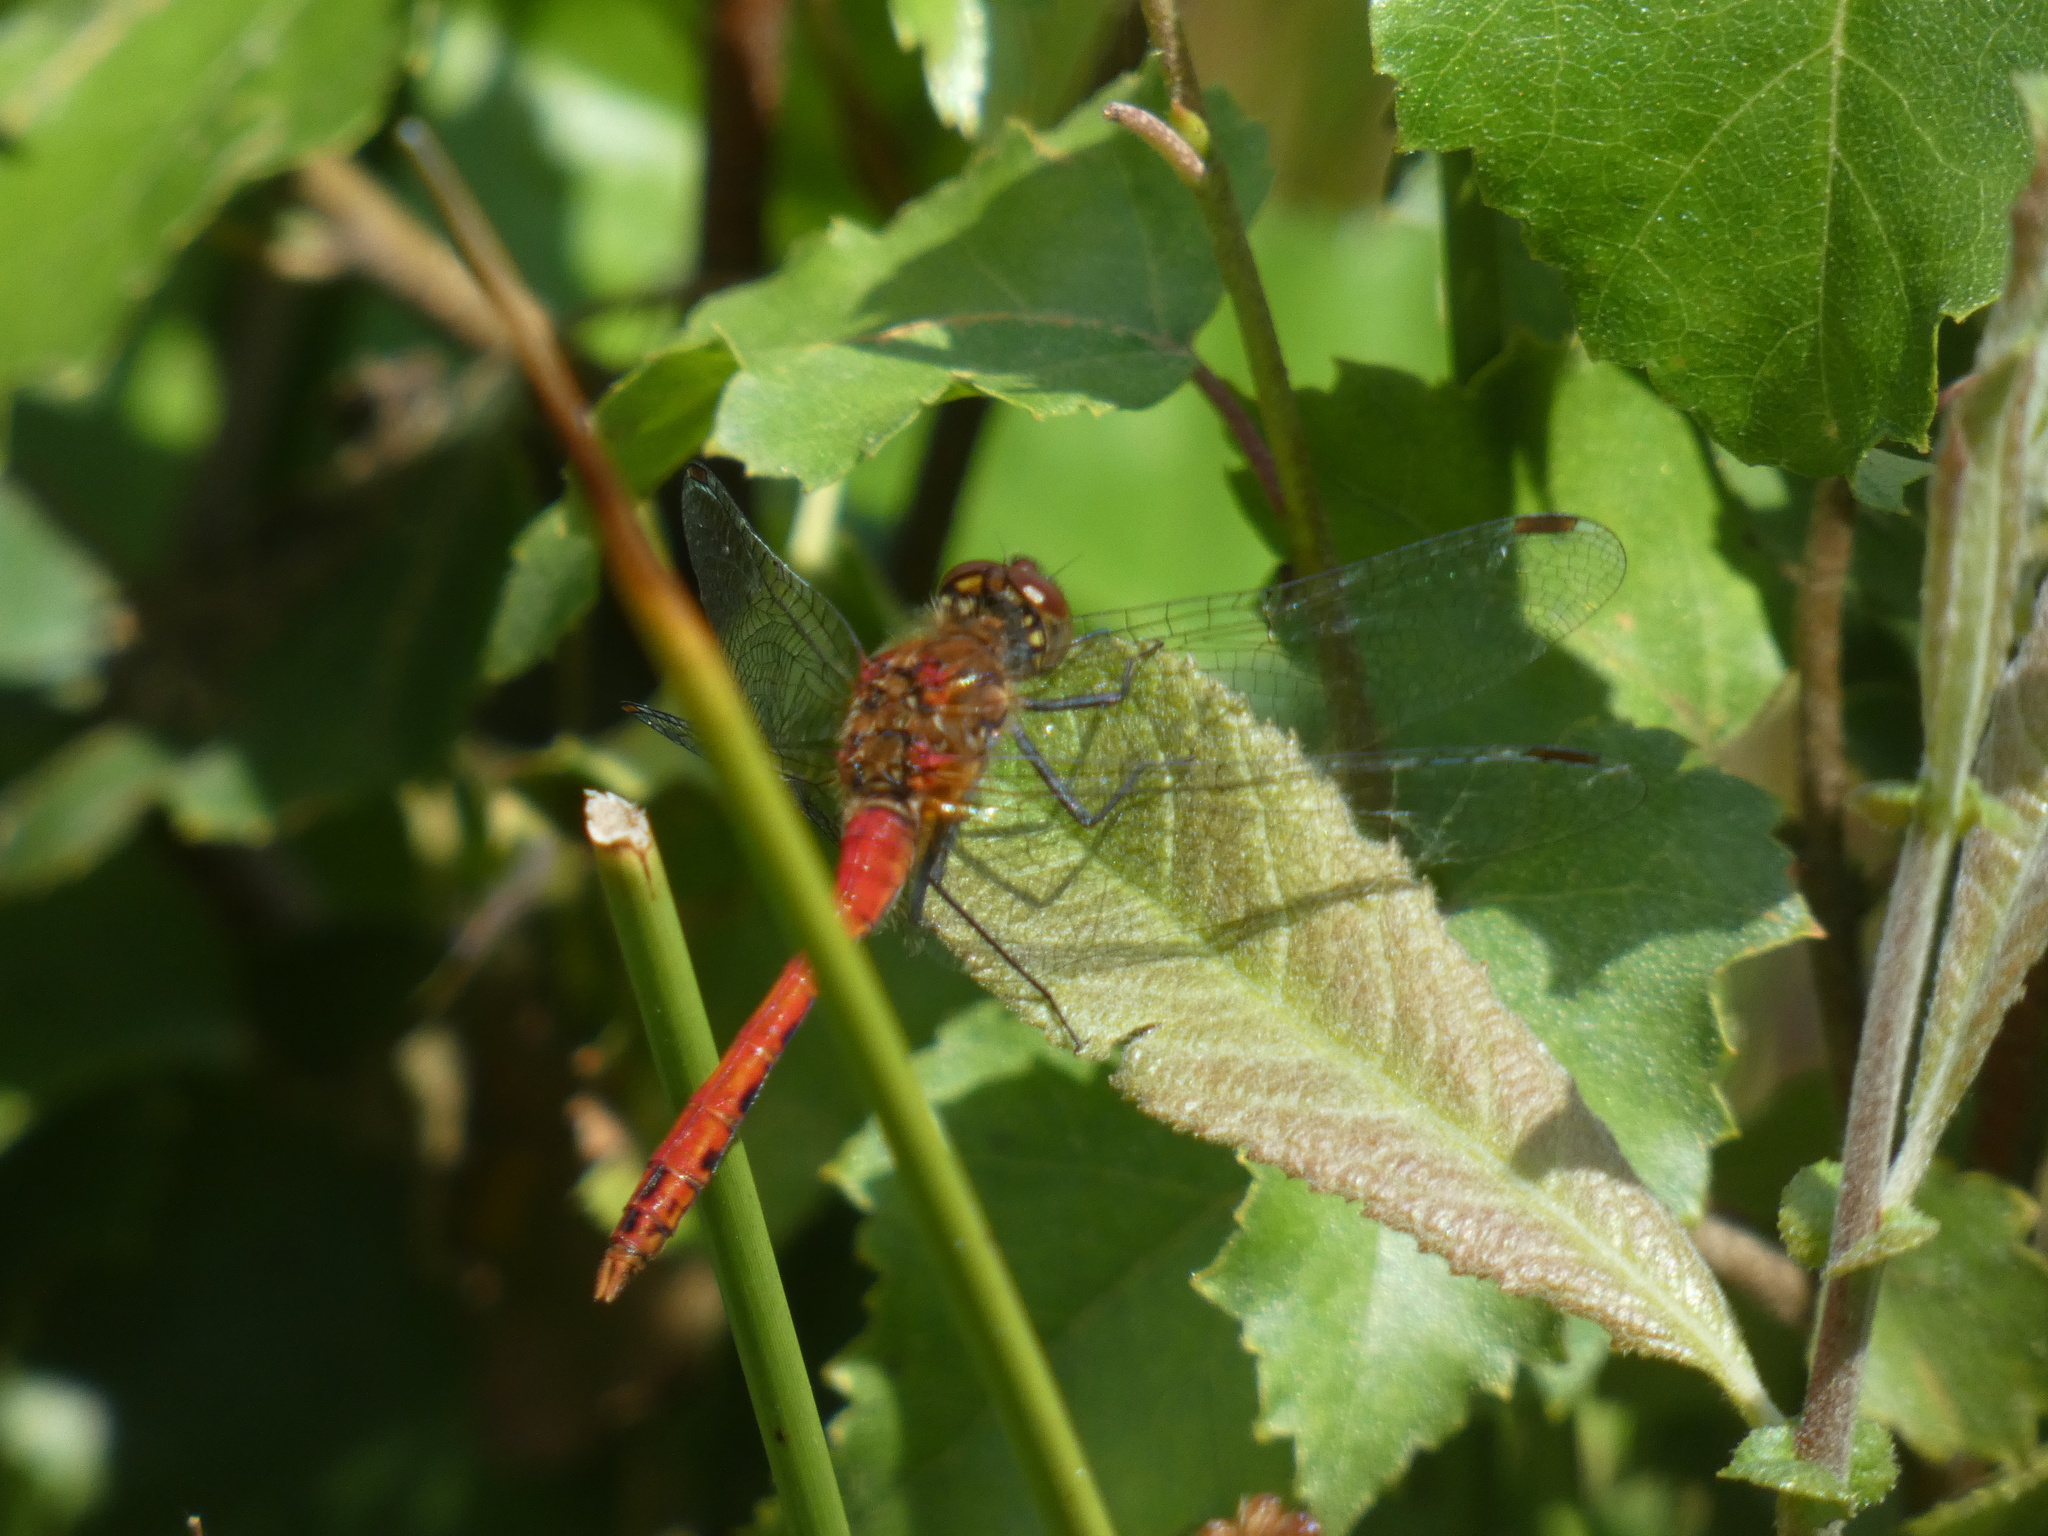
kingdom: Animalia
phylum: Arthropoda
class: Insecta
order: Odonata
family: Libellulidae
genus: Sympetrum
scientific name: Sympetrum sanguineum
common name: Ruddy darter
